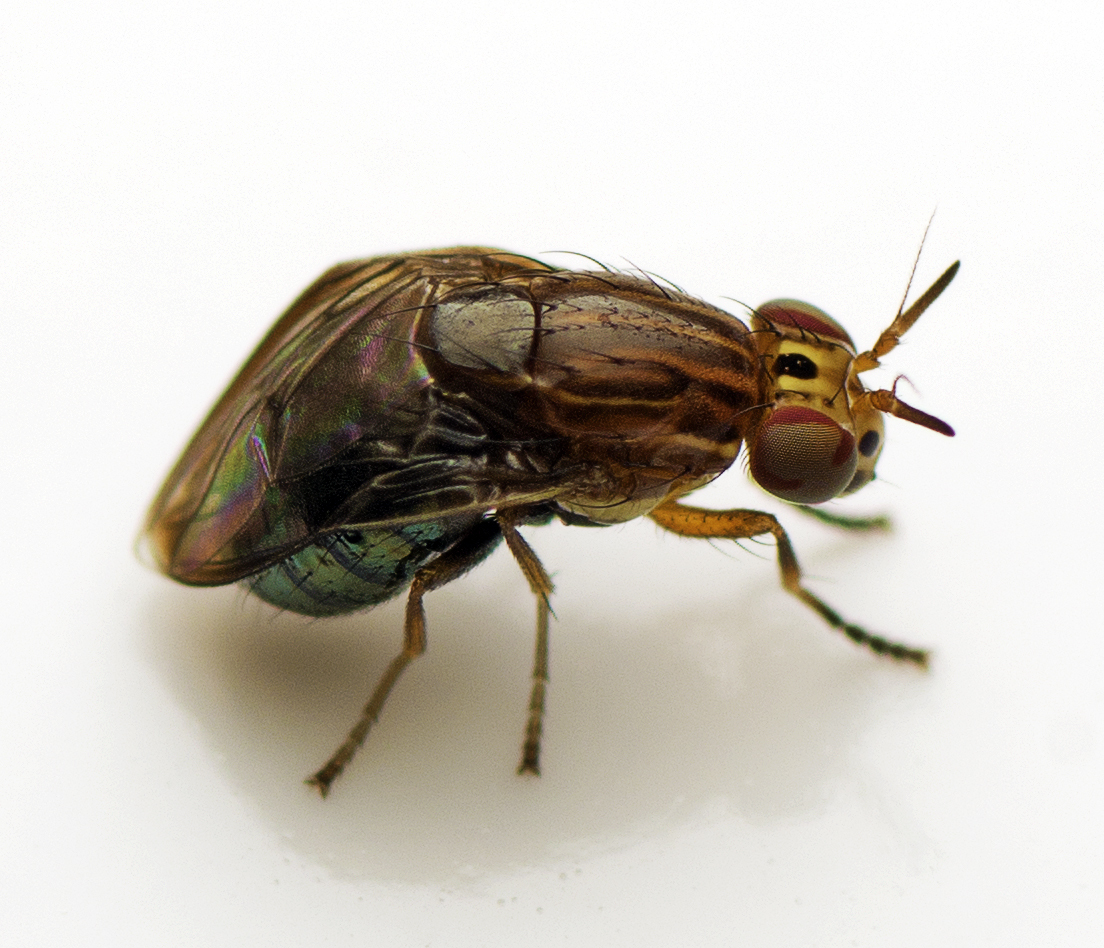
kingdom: Animalia
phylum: Arthropoda
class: Insecta
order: Diptera
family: Lauxaniidae
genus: Steganopsis
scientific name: Steganopsis melanogaster
